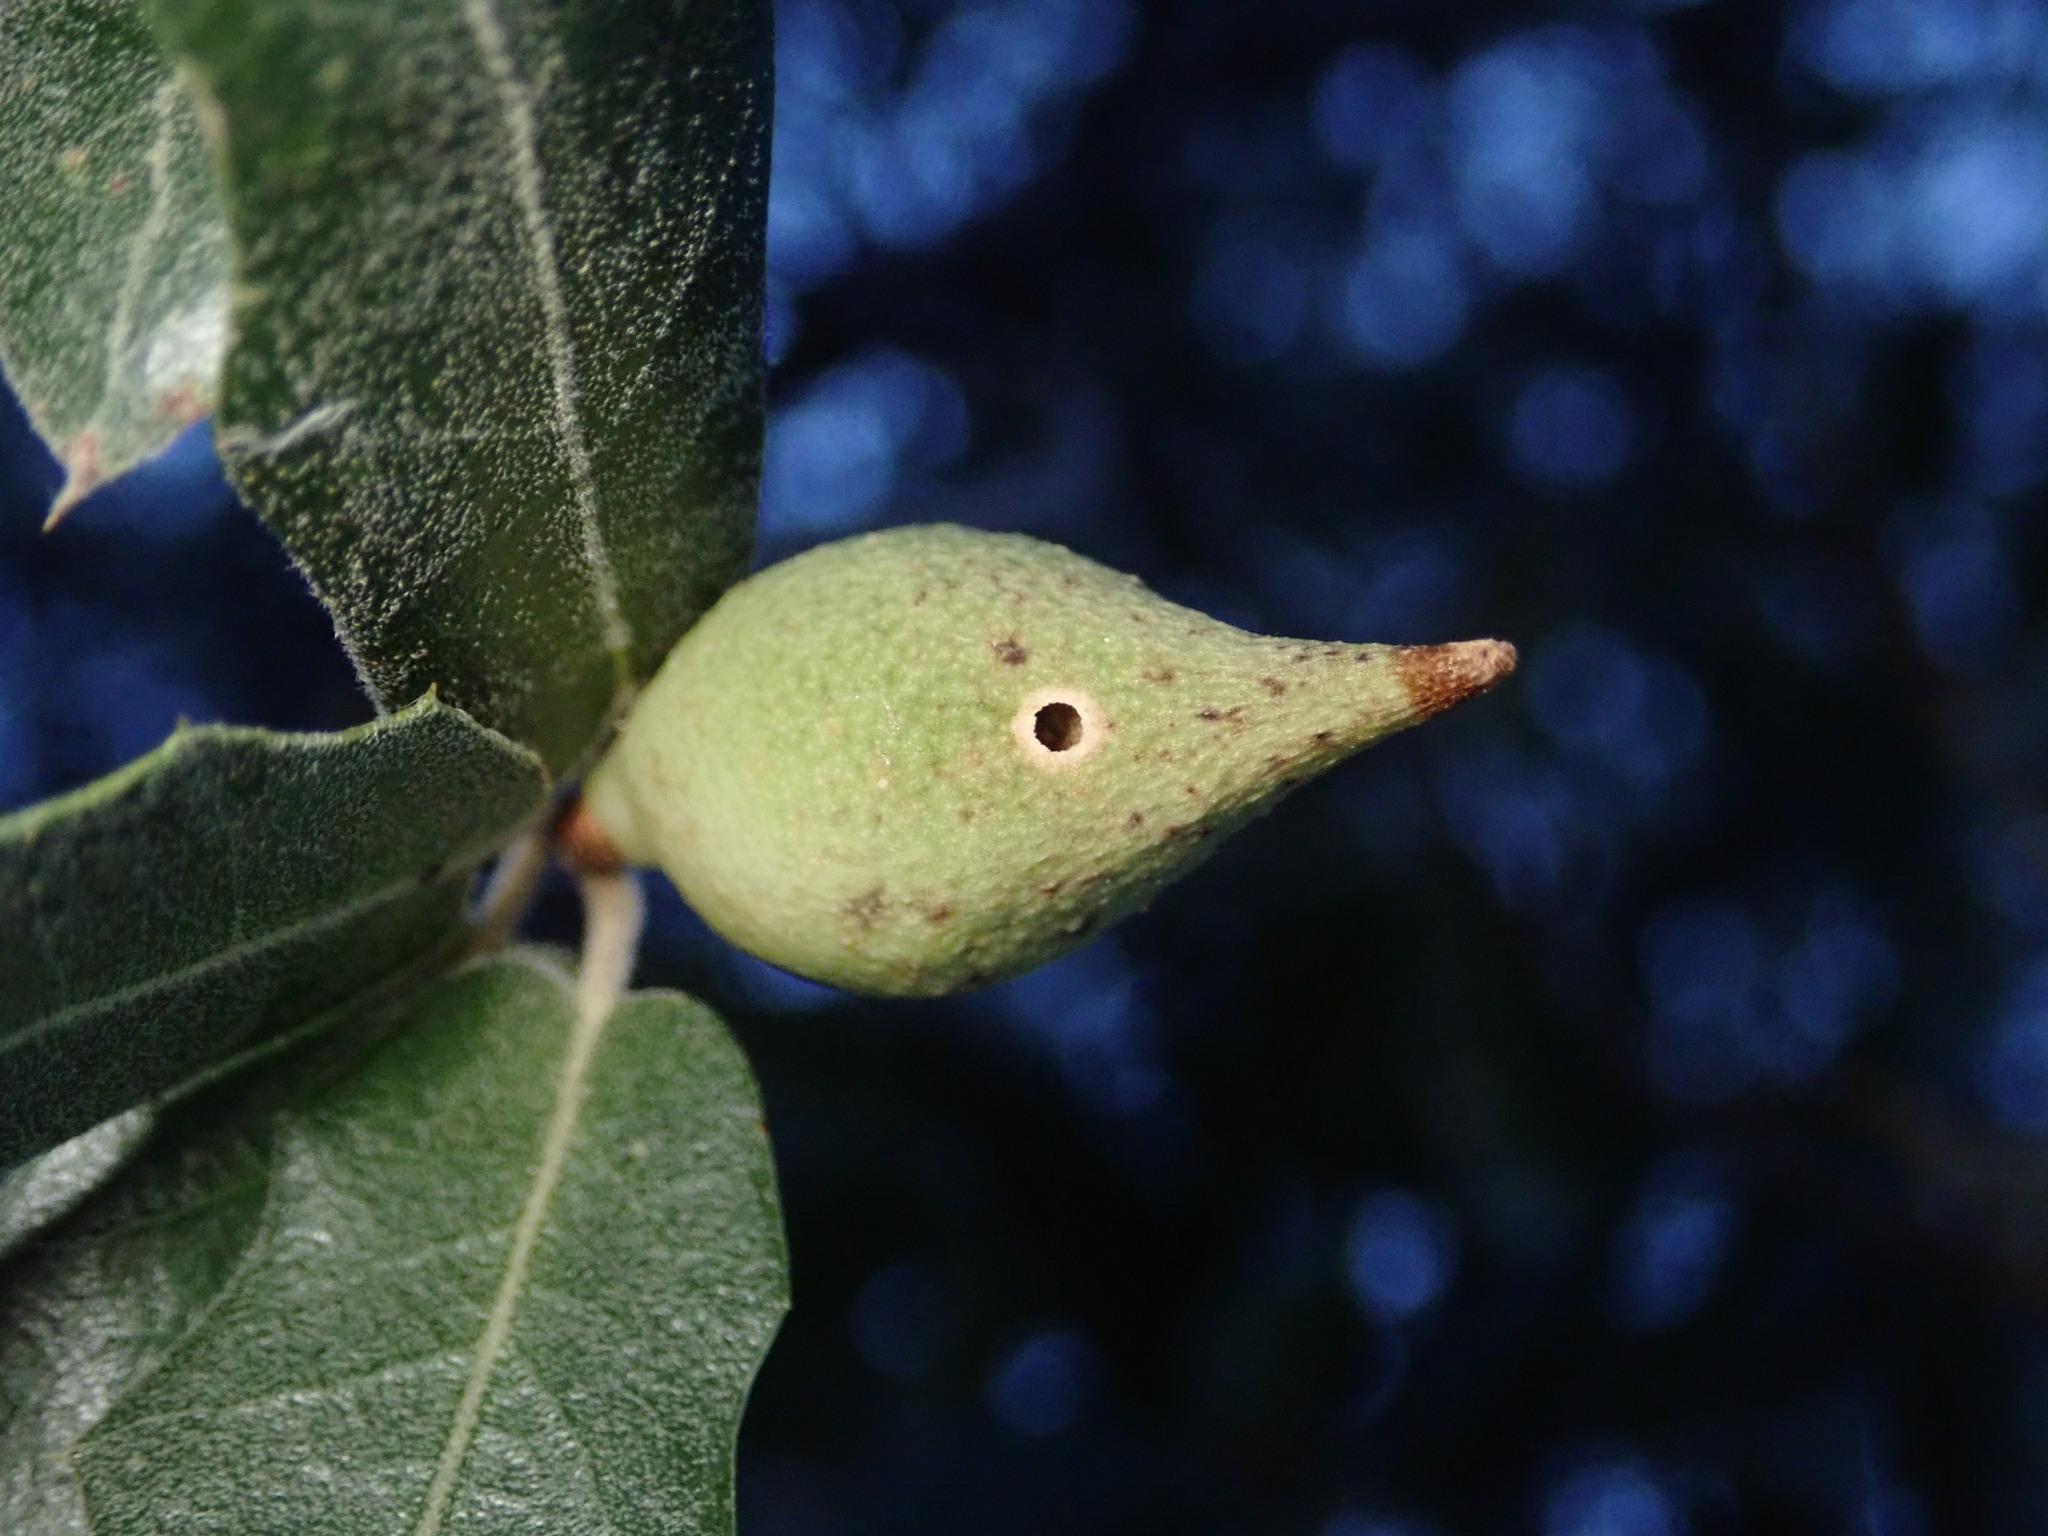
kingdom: Animalia
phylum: Arthropoda
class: Insecta
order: Hymenoptera
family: Cynipidae
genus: Amphibolips
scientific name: Amphibolips fusus
